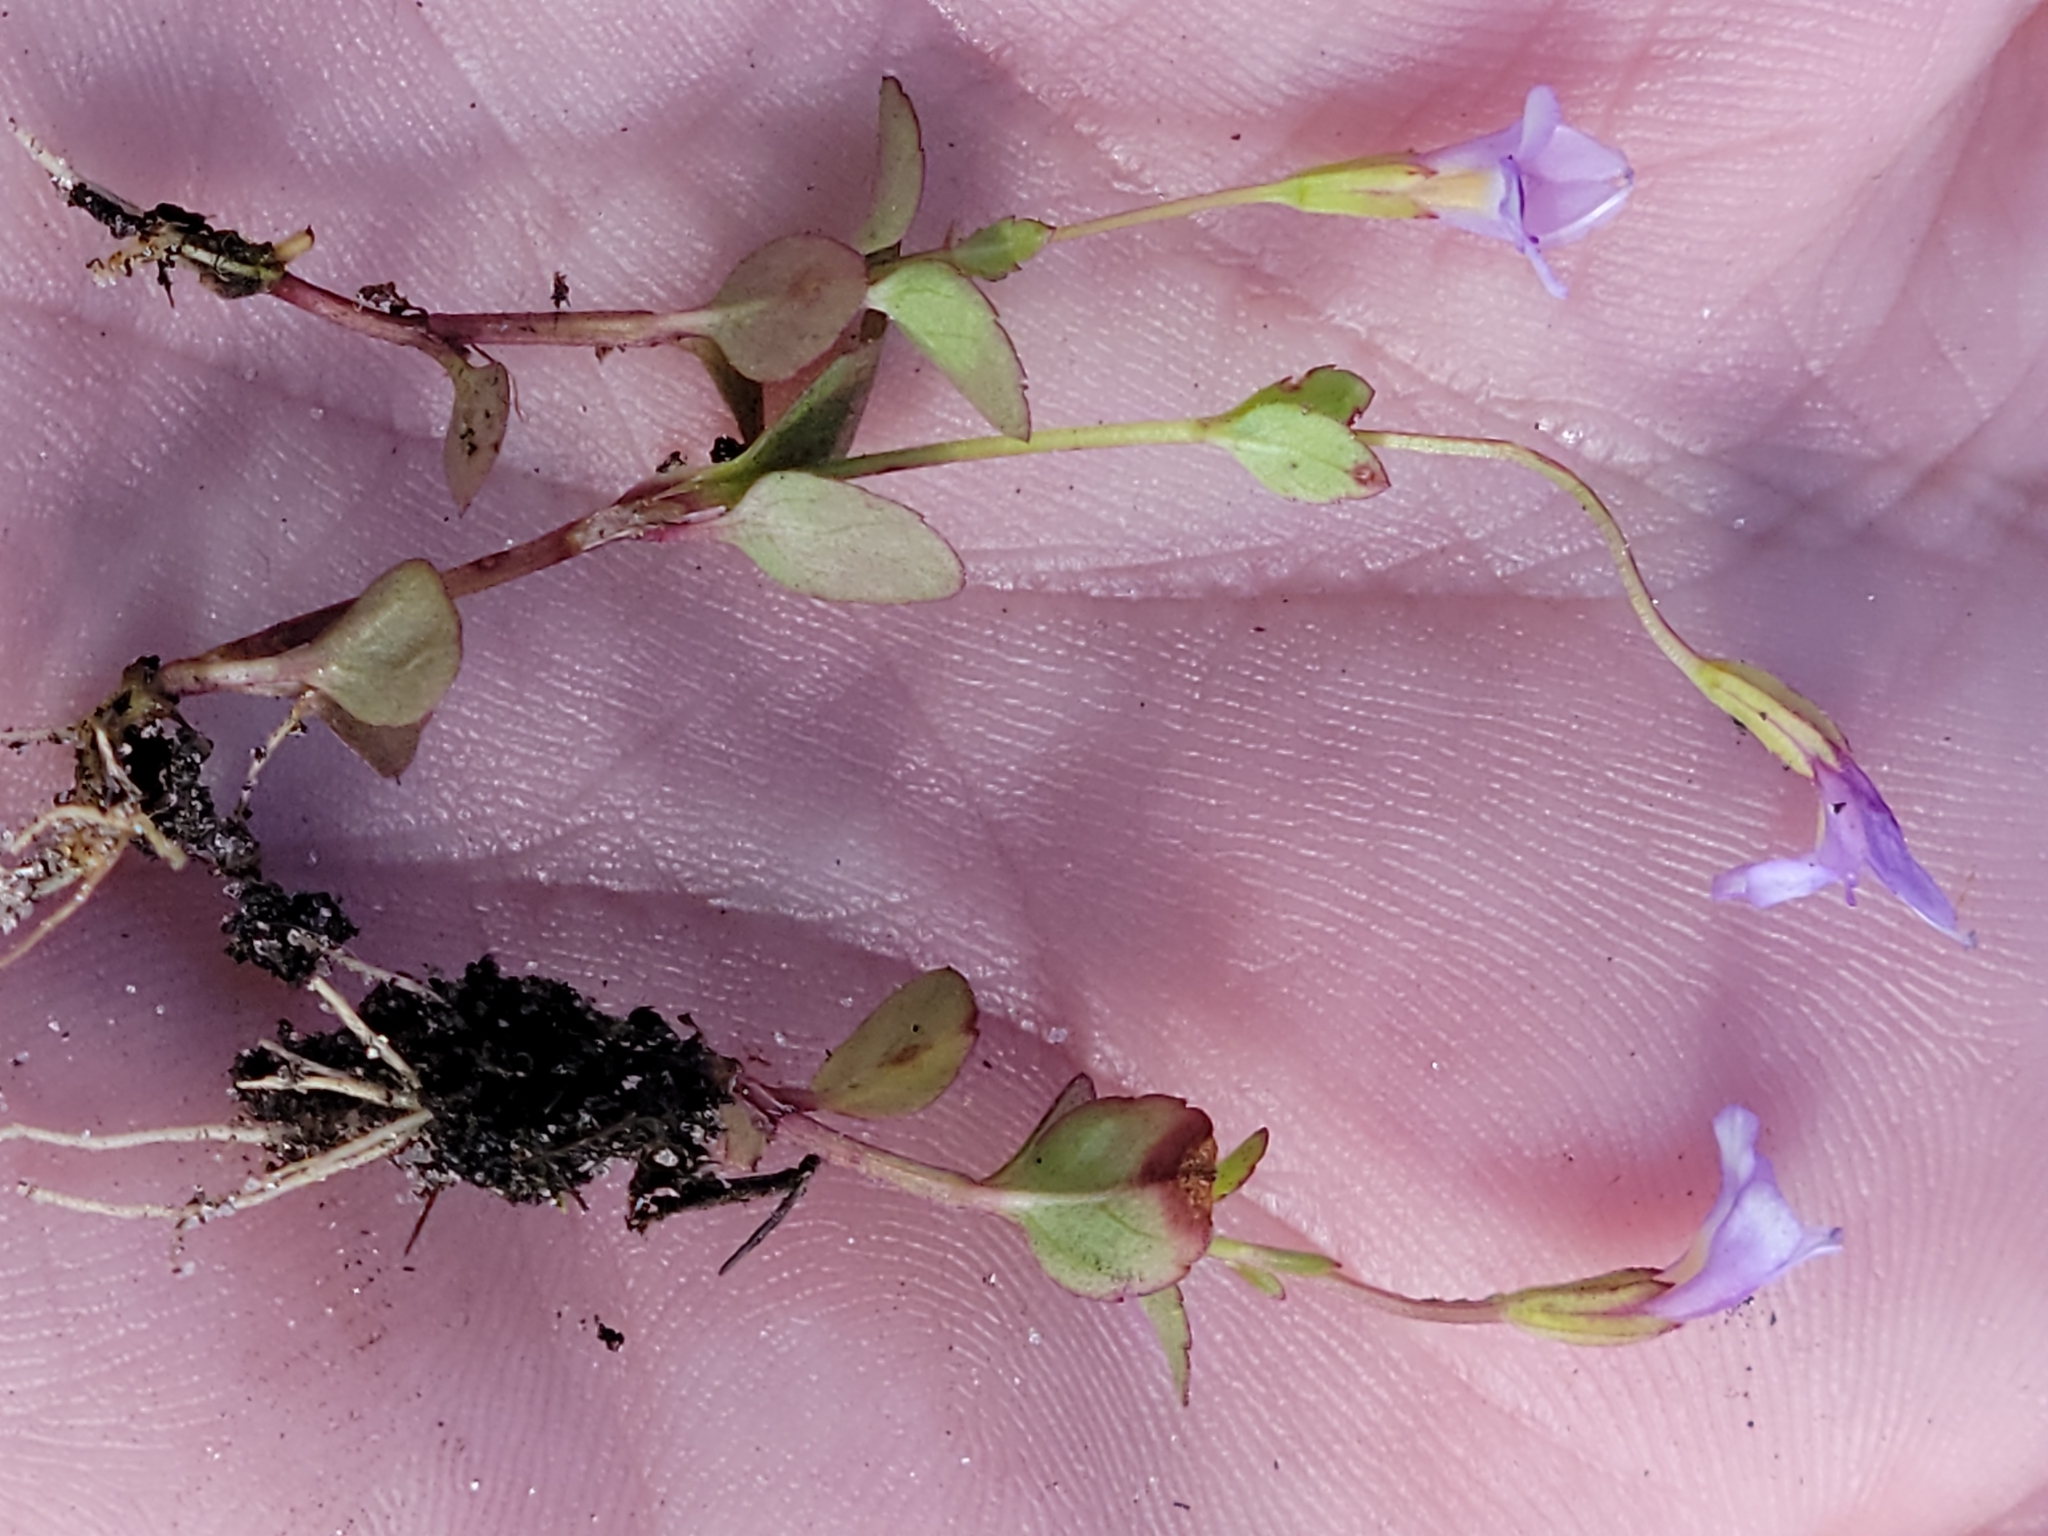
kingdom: Plantae
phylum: Tracheophyta
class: Magnoliopsida
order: Lamiales
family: Linderniaceae
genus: Torenia
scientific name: Torenia crustacea
